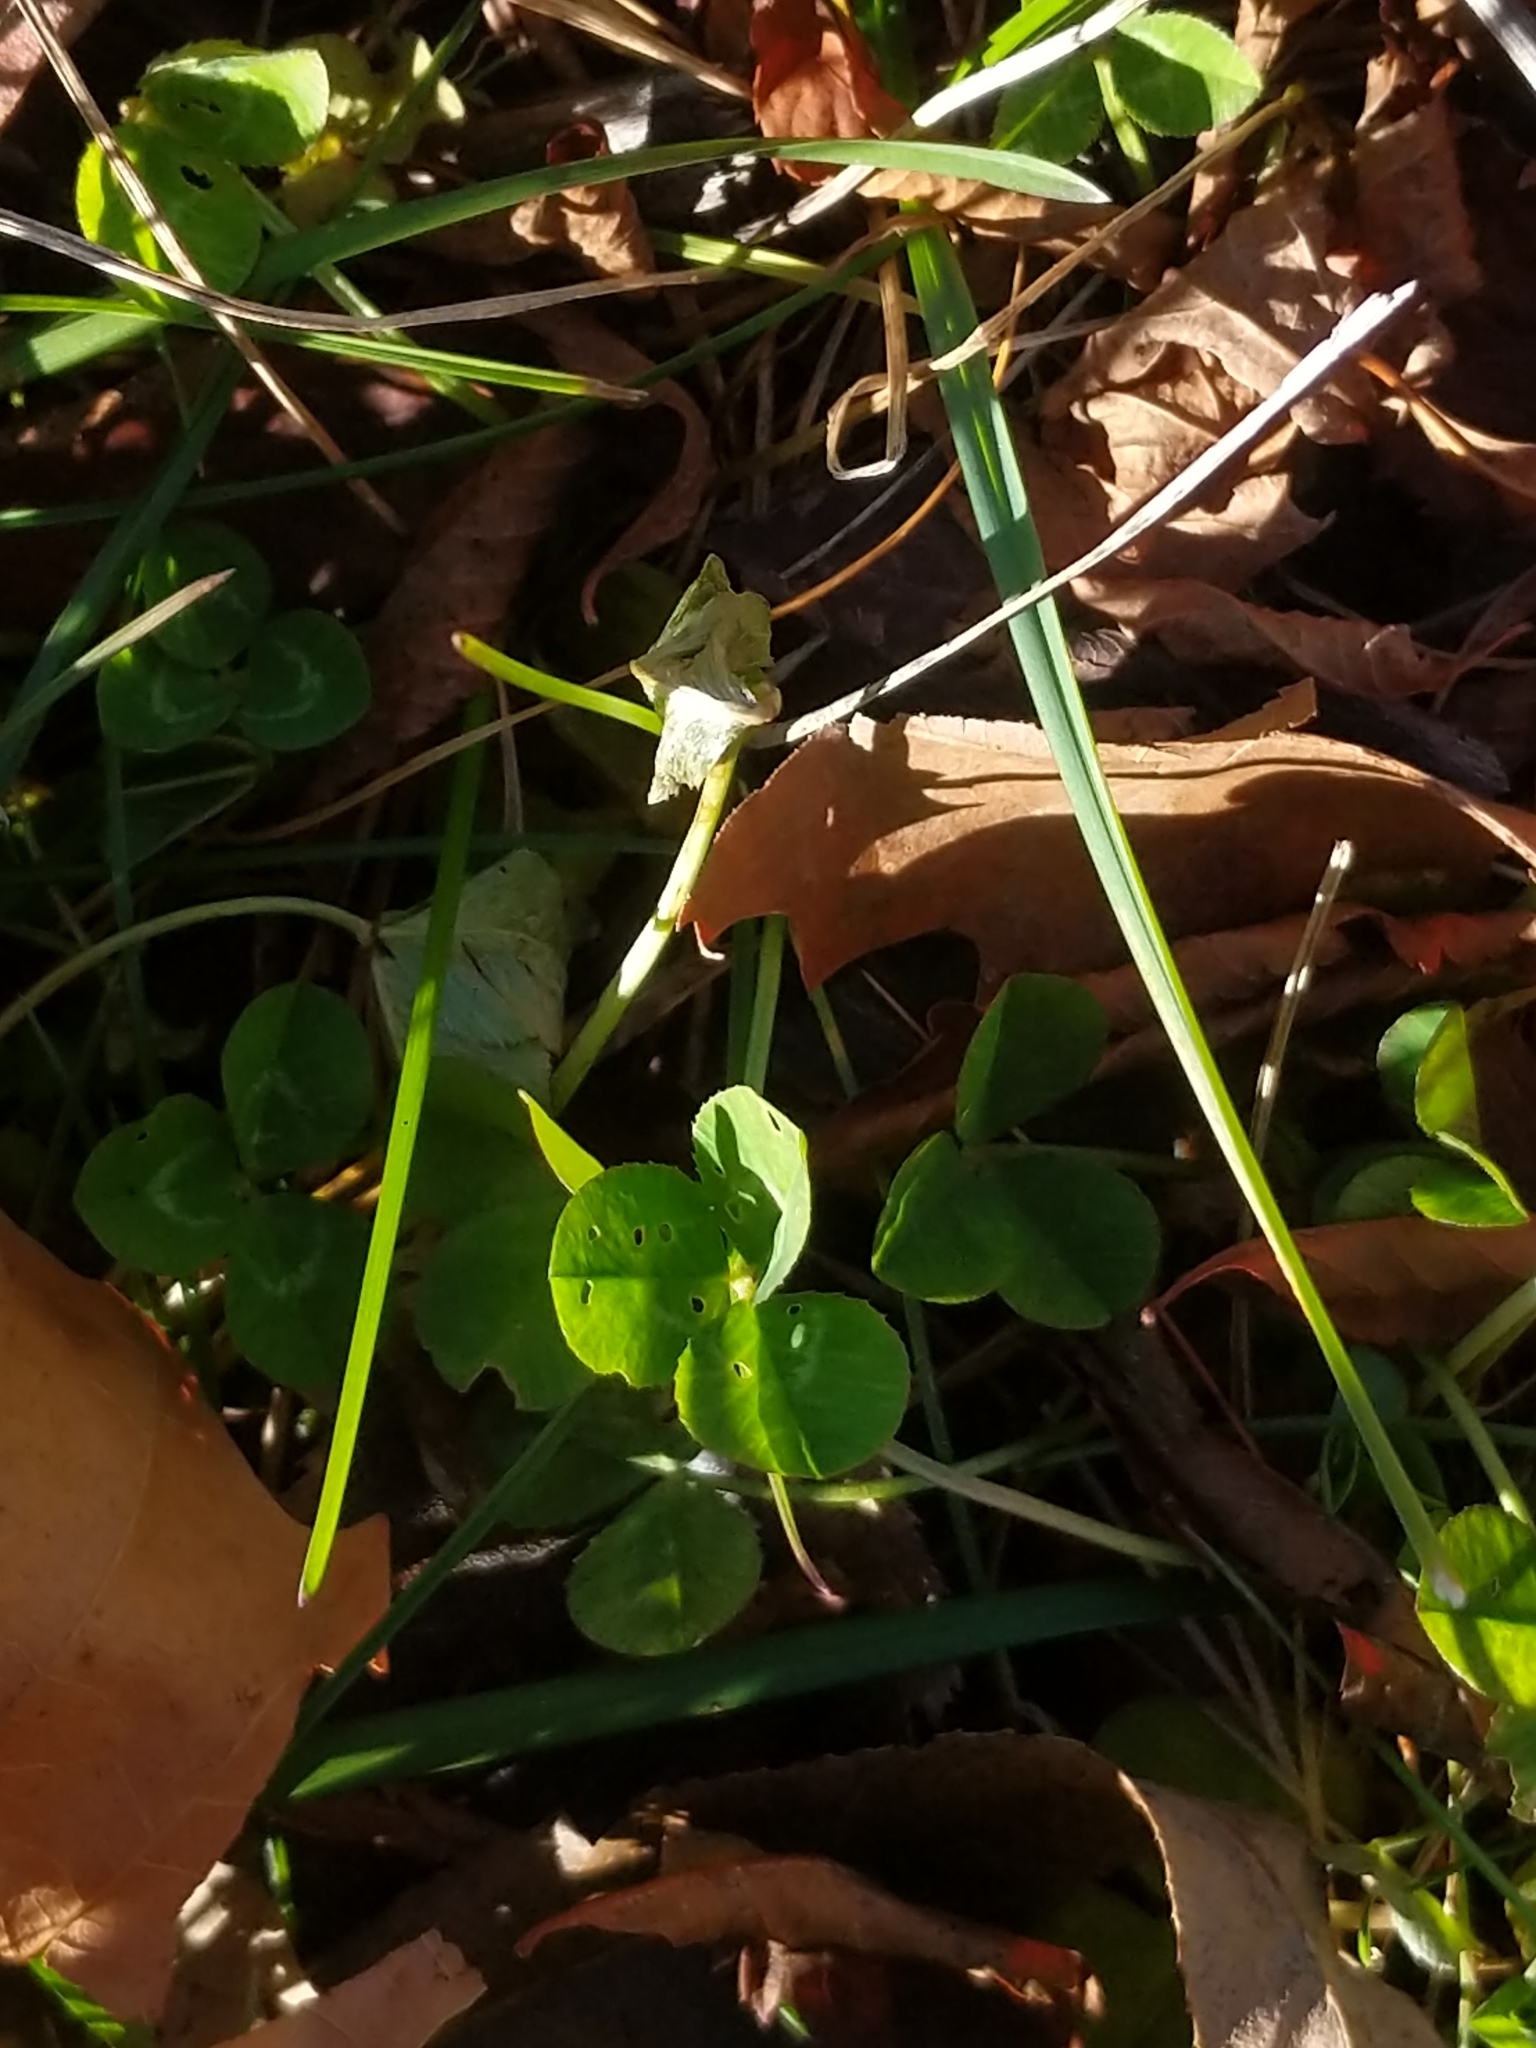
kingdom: Plantae
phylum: Tracheophyta
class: Magnoliopsida
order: Fabales
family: Fabaceae
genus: Trifolium
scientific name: Trifolium repens
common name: White clover
